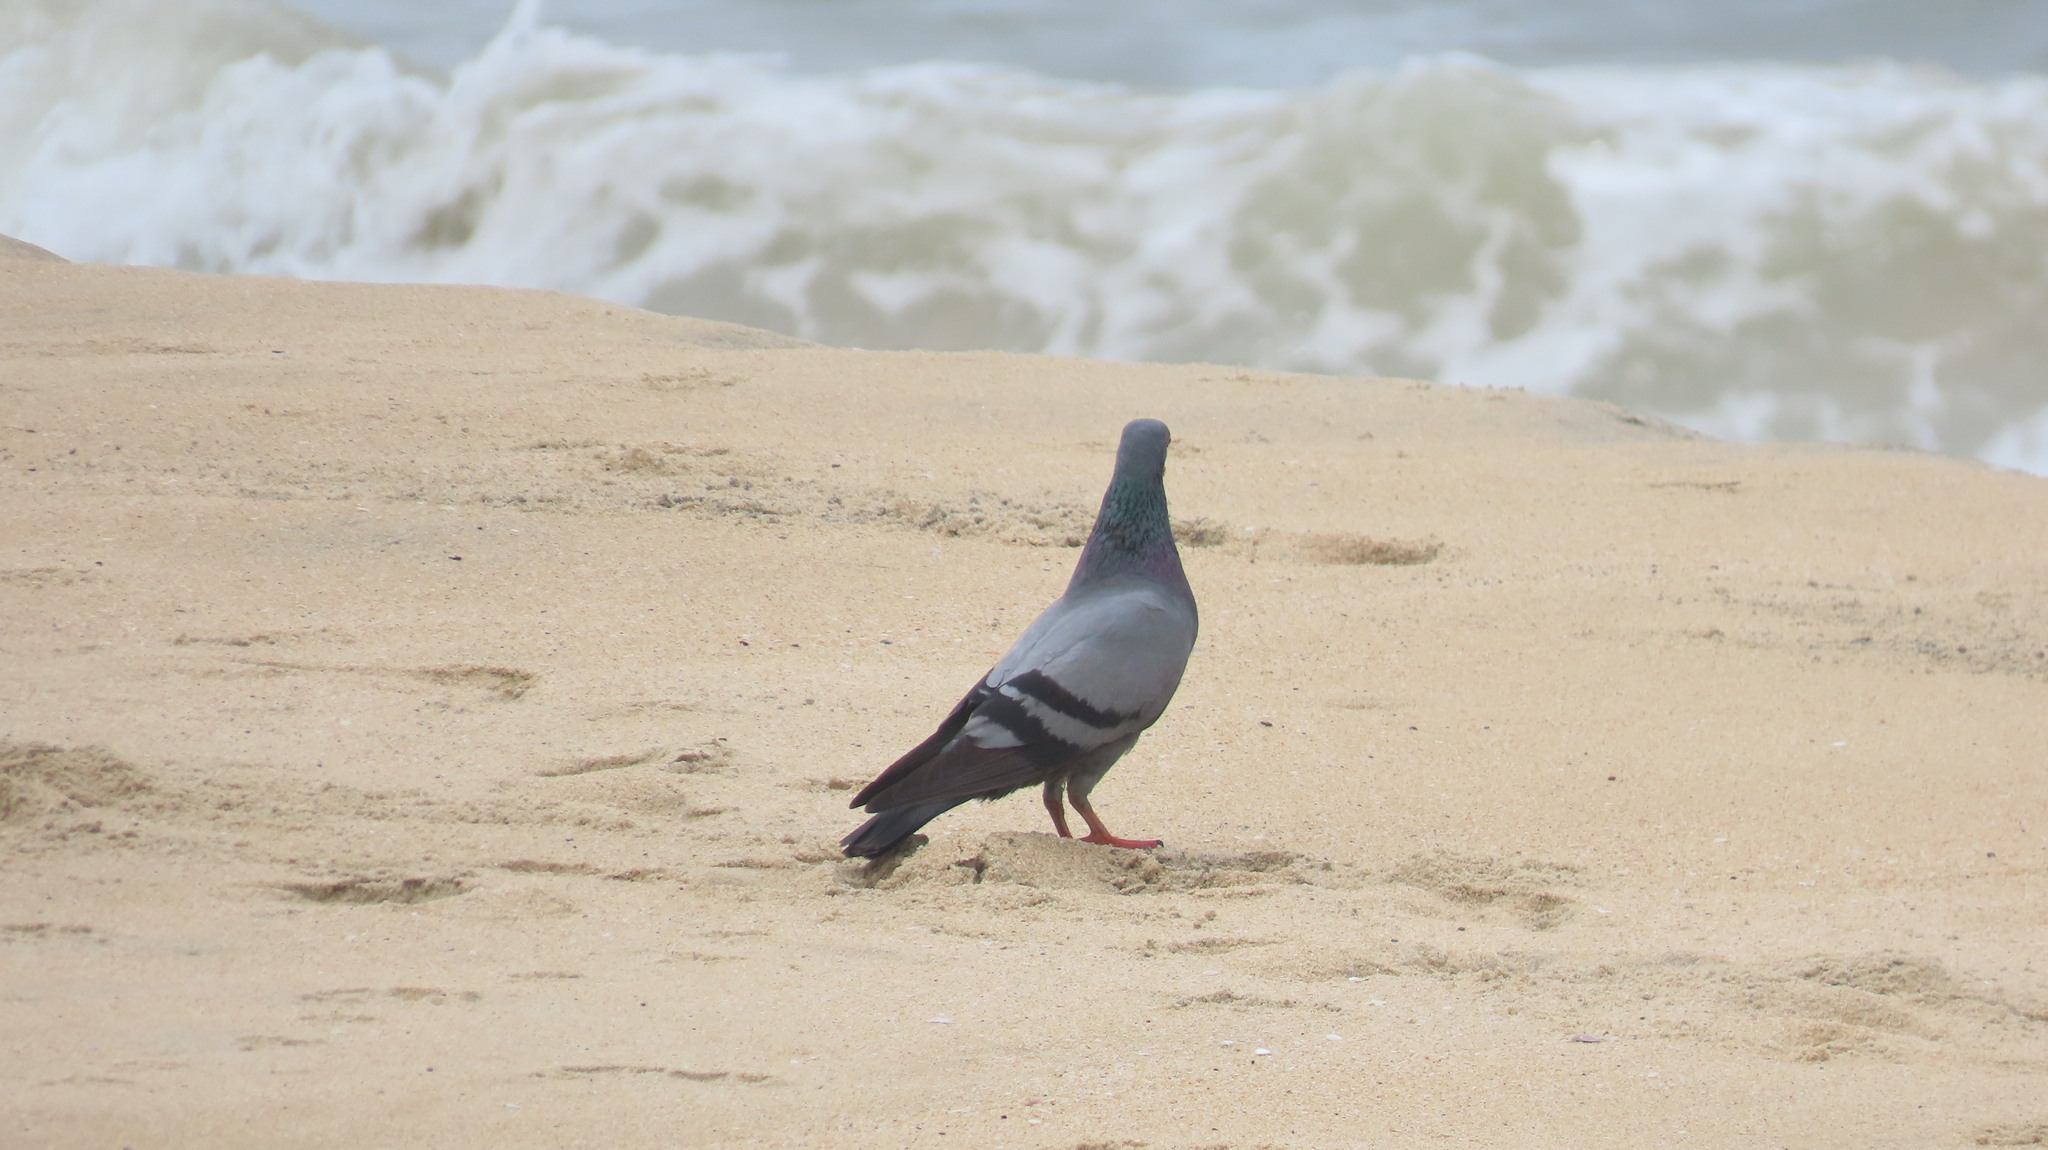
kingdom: Animalia
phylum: Chordata
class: Aves
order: Columbiformes
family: Columbidae
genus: Columba
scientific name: Columba livia
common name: Rock pigeon
